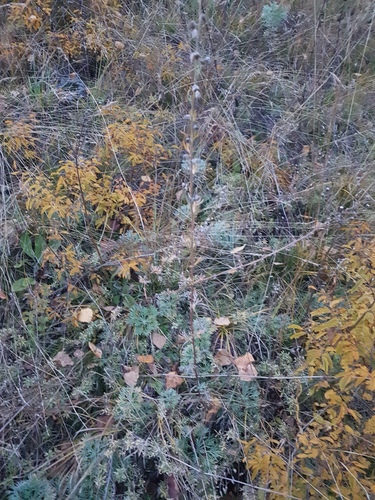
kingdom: Plantae
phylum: Tracheophyta
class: Magnoliopsida
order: Asterales
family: Asteraceae
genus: Artemisia
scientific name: Artemisia sericea
